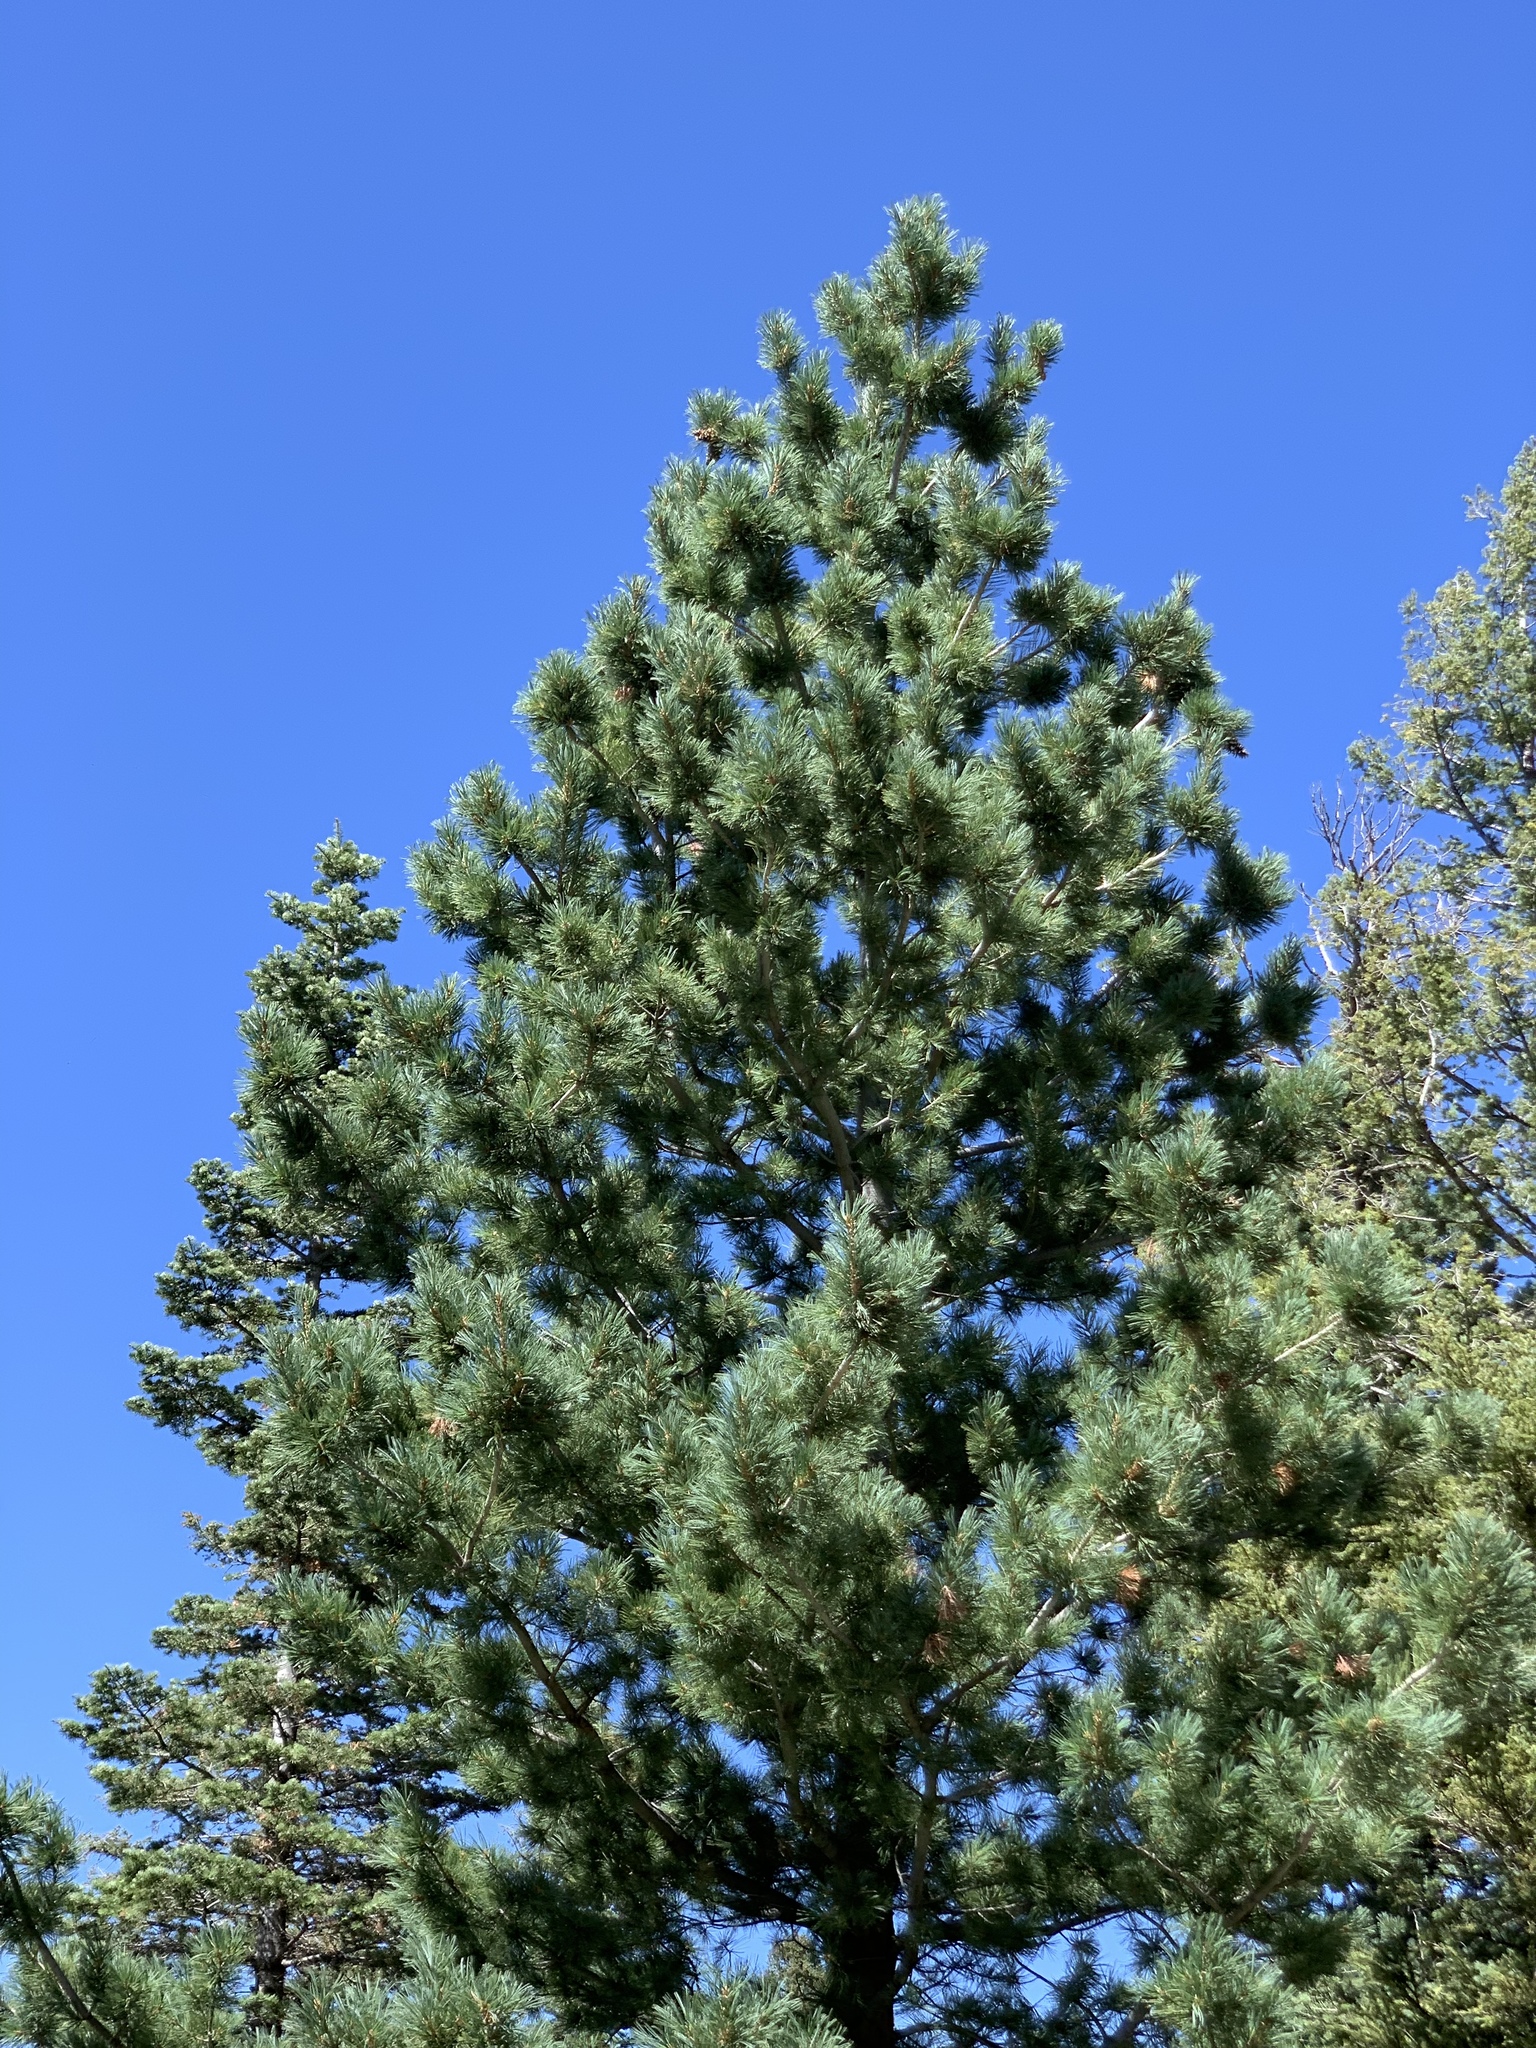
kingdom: Plantae
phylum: Tracheophyta
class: Pinopsida
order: Pinales
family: Pinaceae
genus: Pinus
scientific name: Pinus strobiformis
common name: Southwestern white pine
